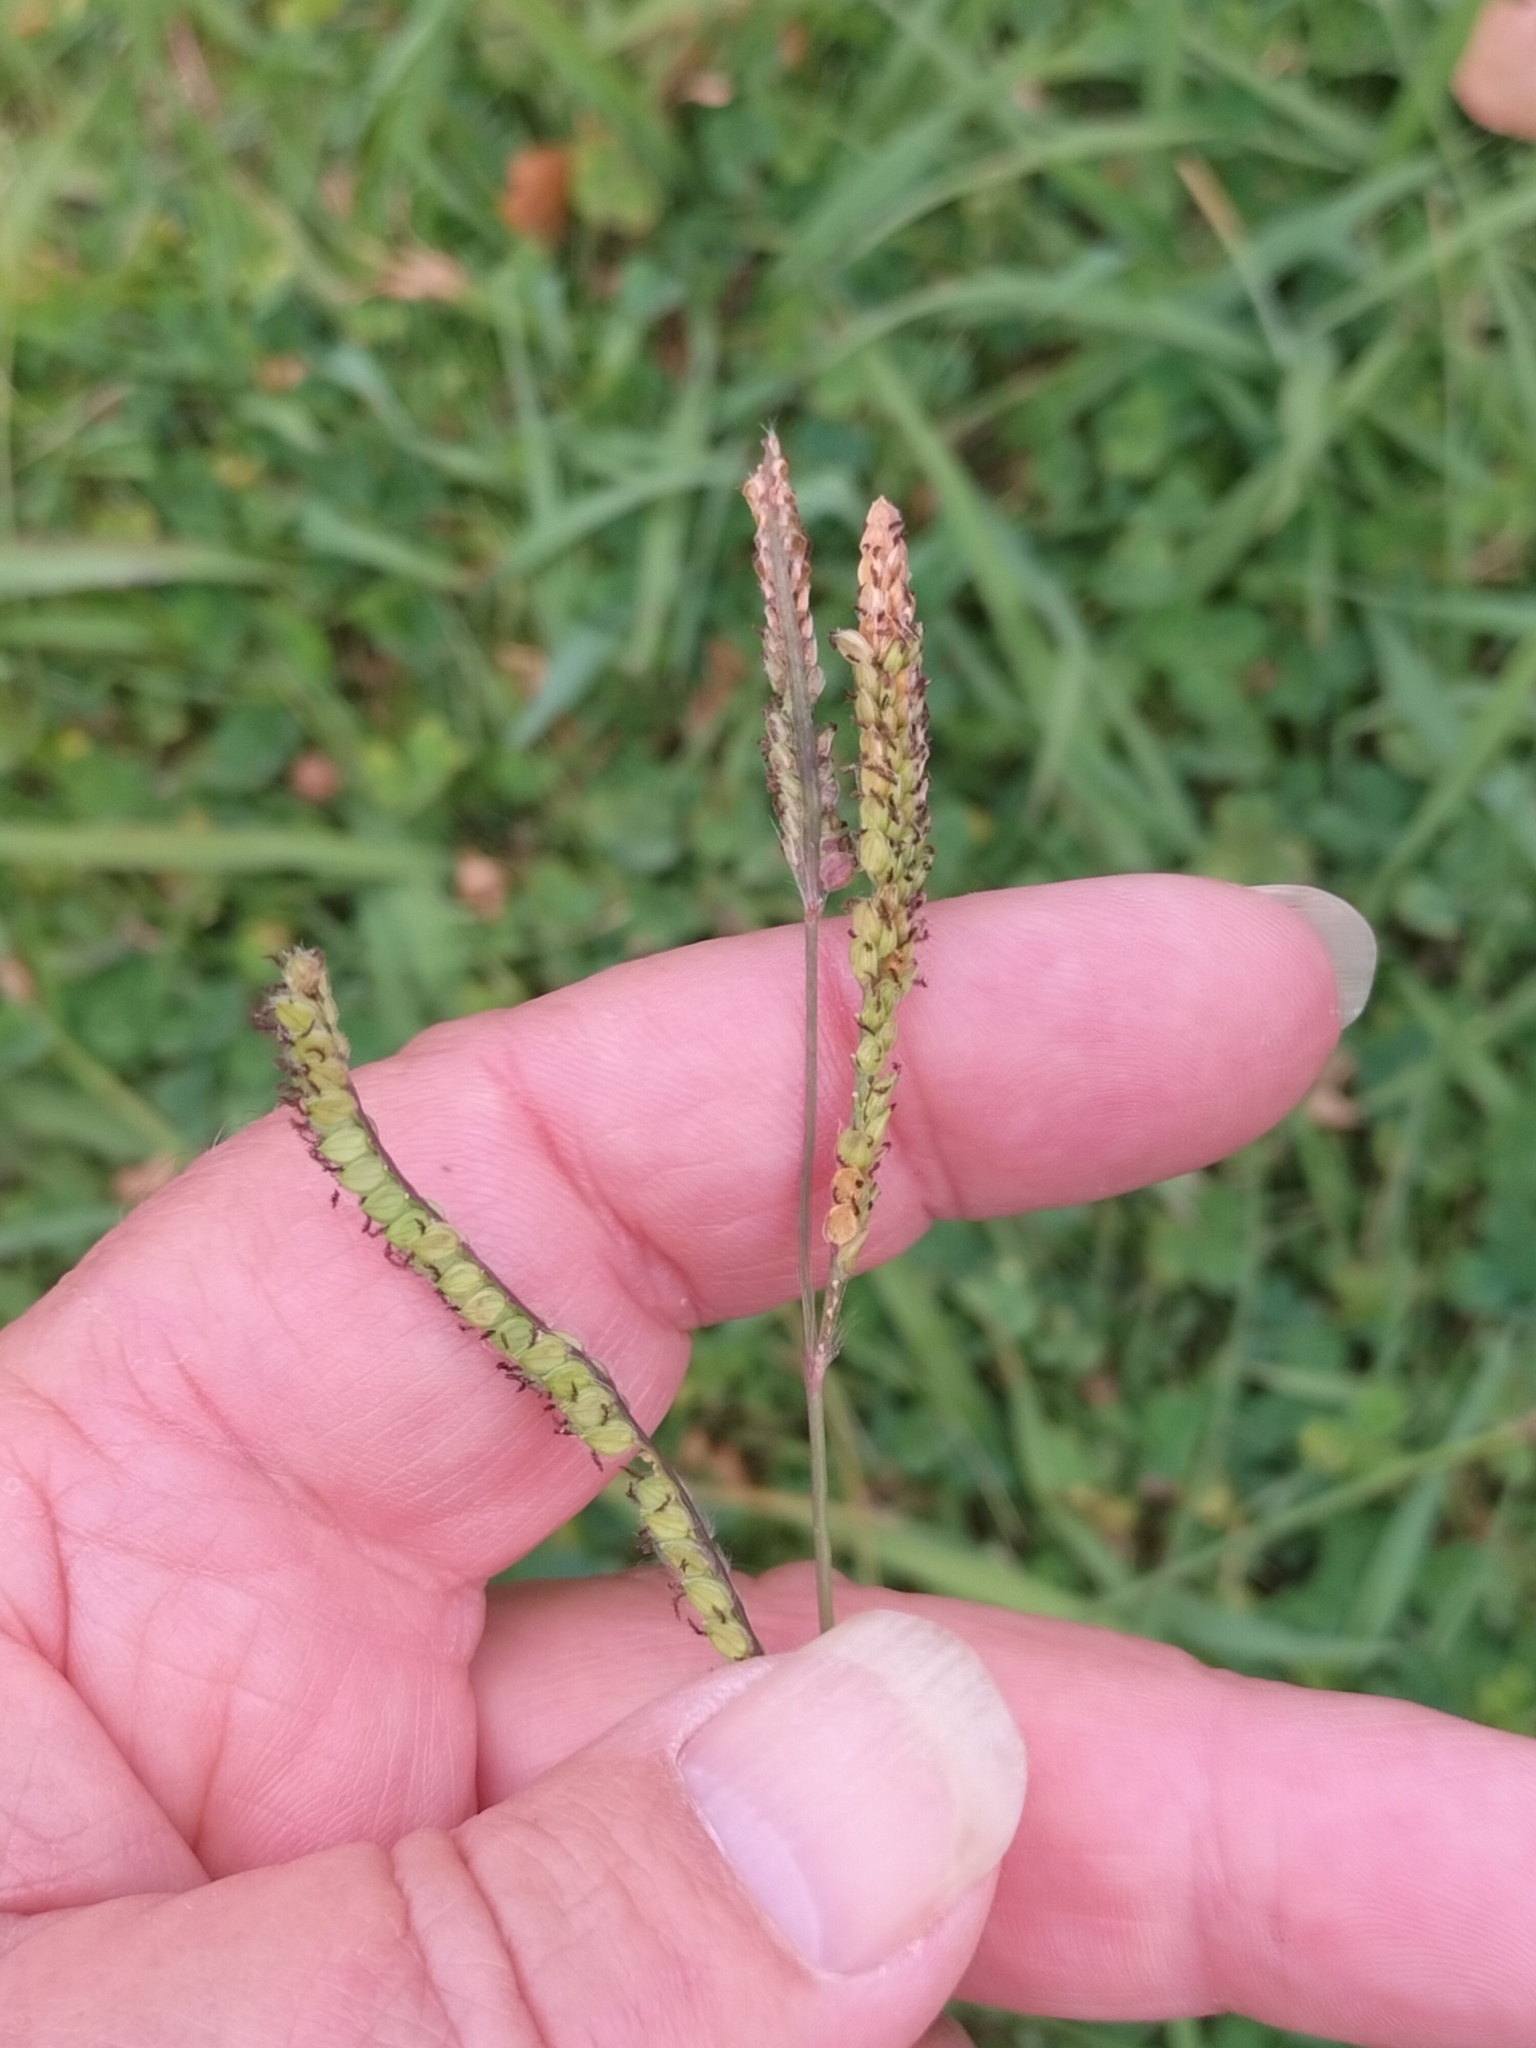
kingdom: Plantae
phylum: Tracheophyta
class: Liliopsida
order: Poales
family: Poaceae
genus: Paspalum
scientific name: Paspalum dilatatum
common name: Dallisgrass
